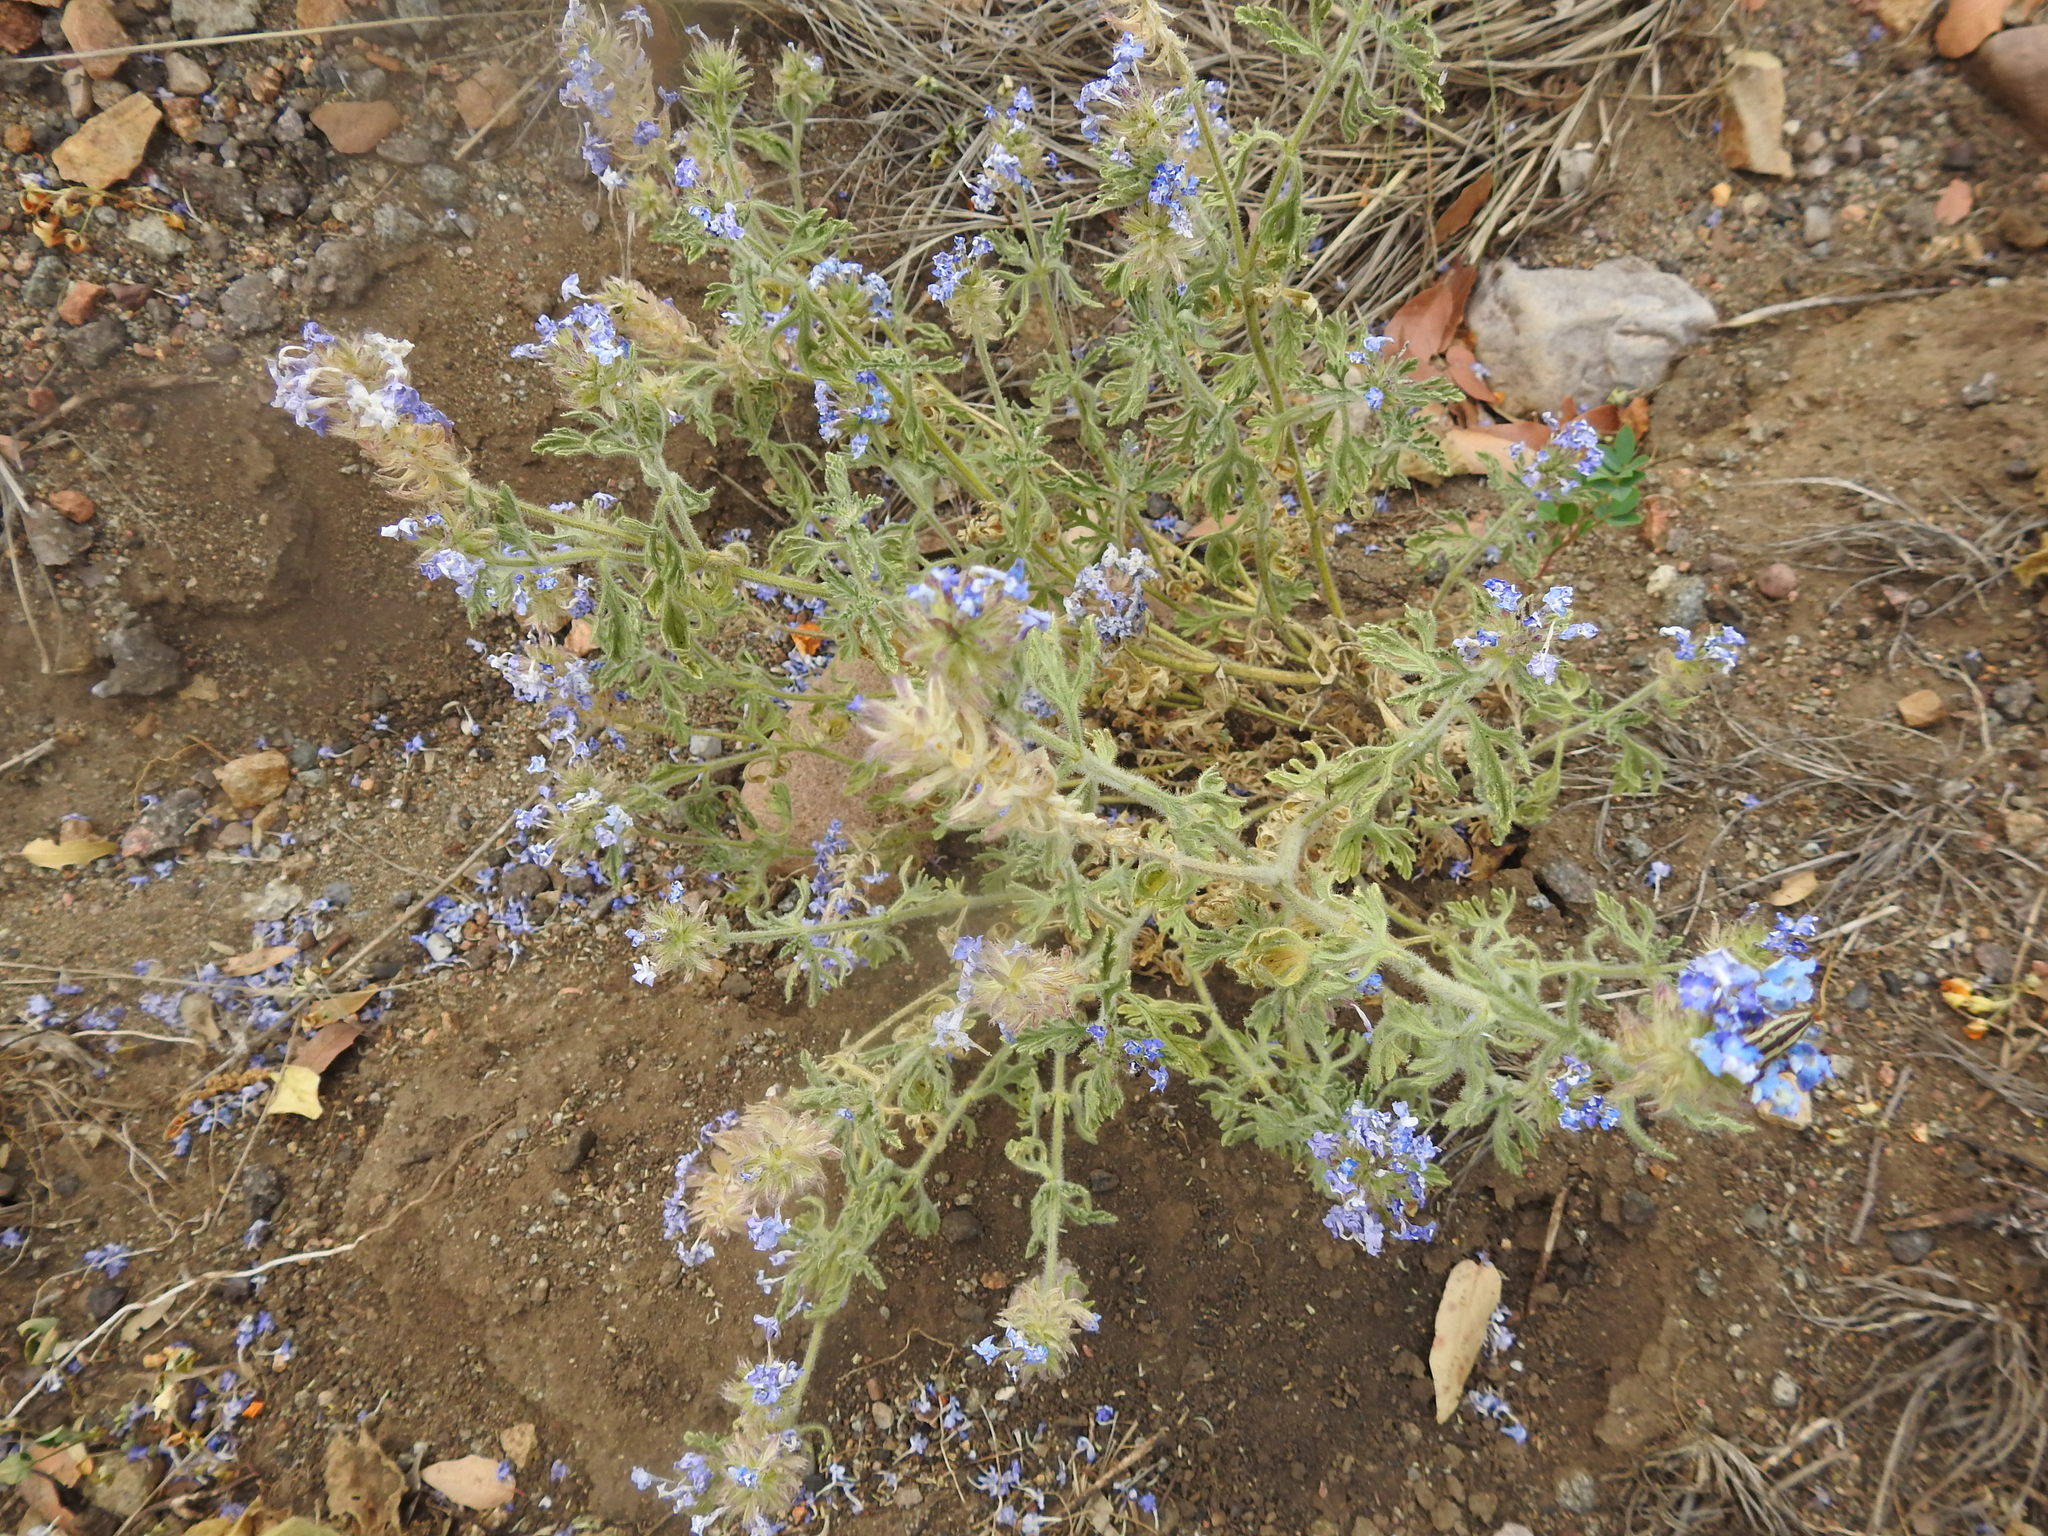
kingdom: Plantae
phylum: Tracheophyta
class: Magnoliopsida
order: Lamiales
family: Verbenaceae
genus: Verbena
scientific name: Verbena
